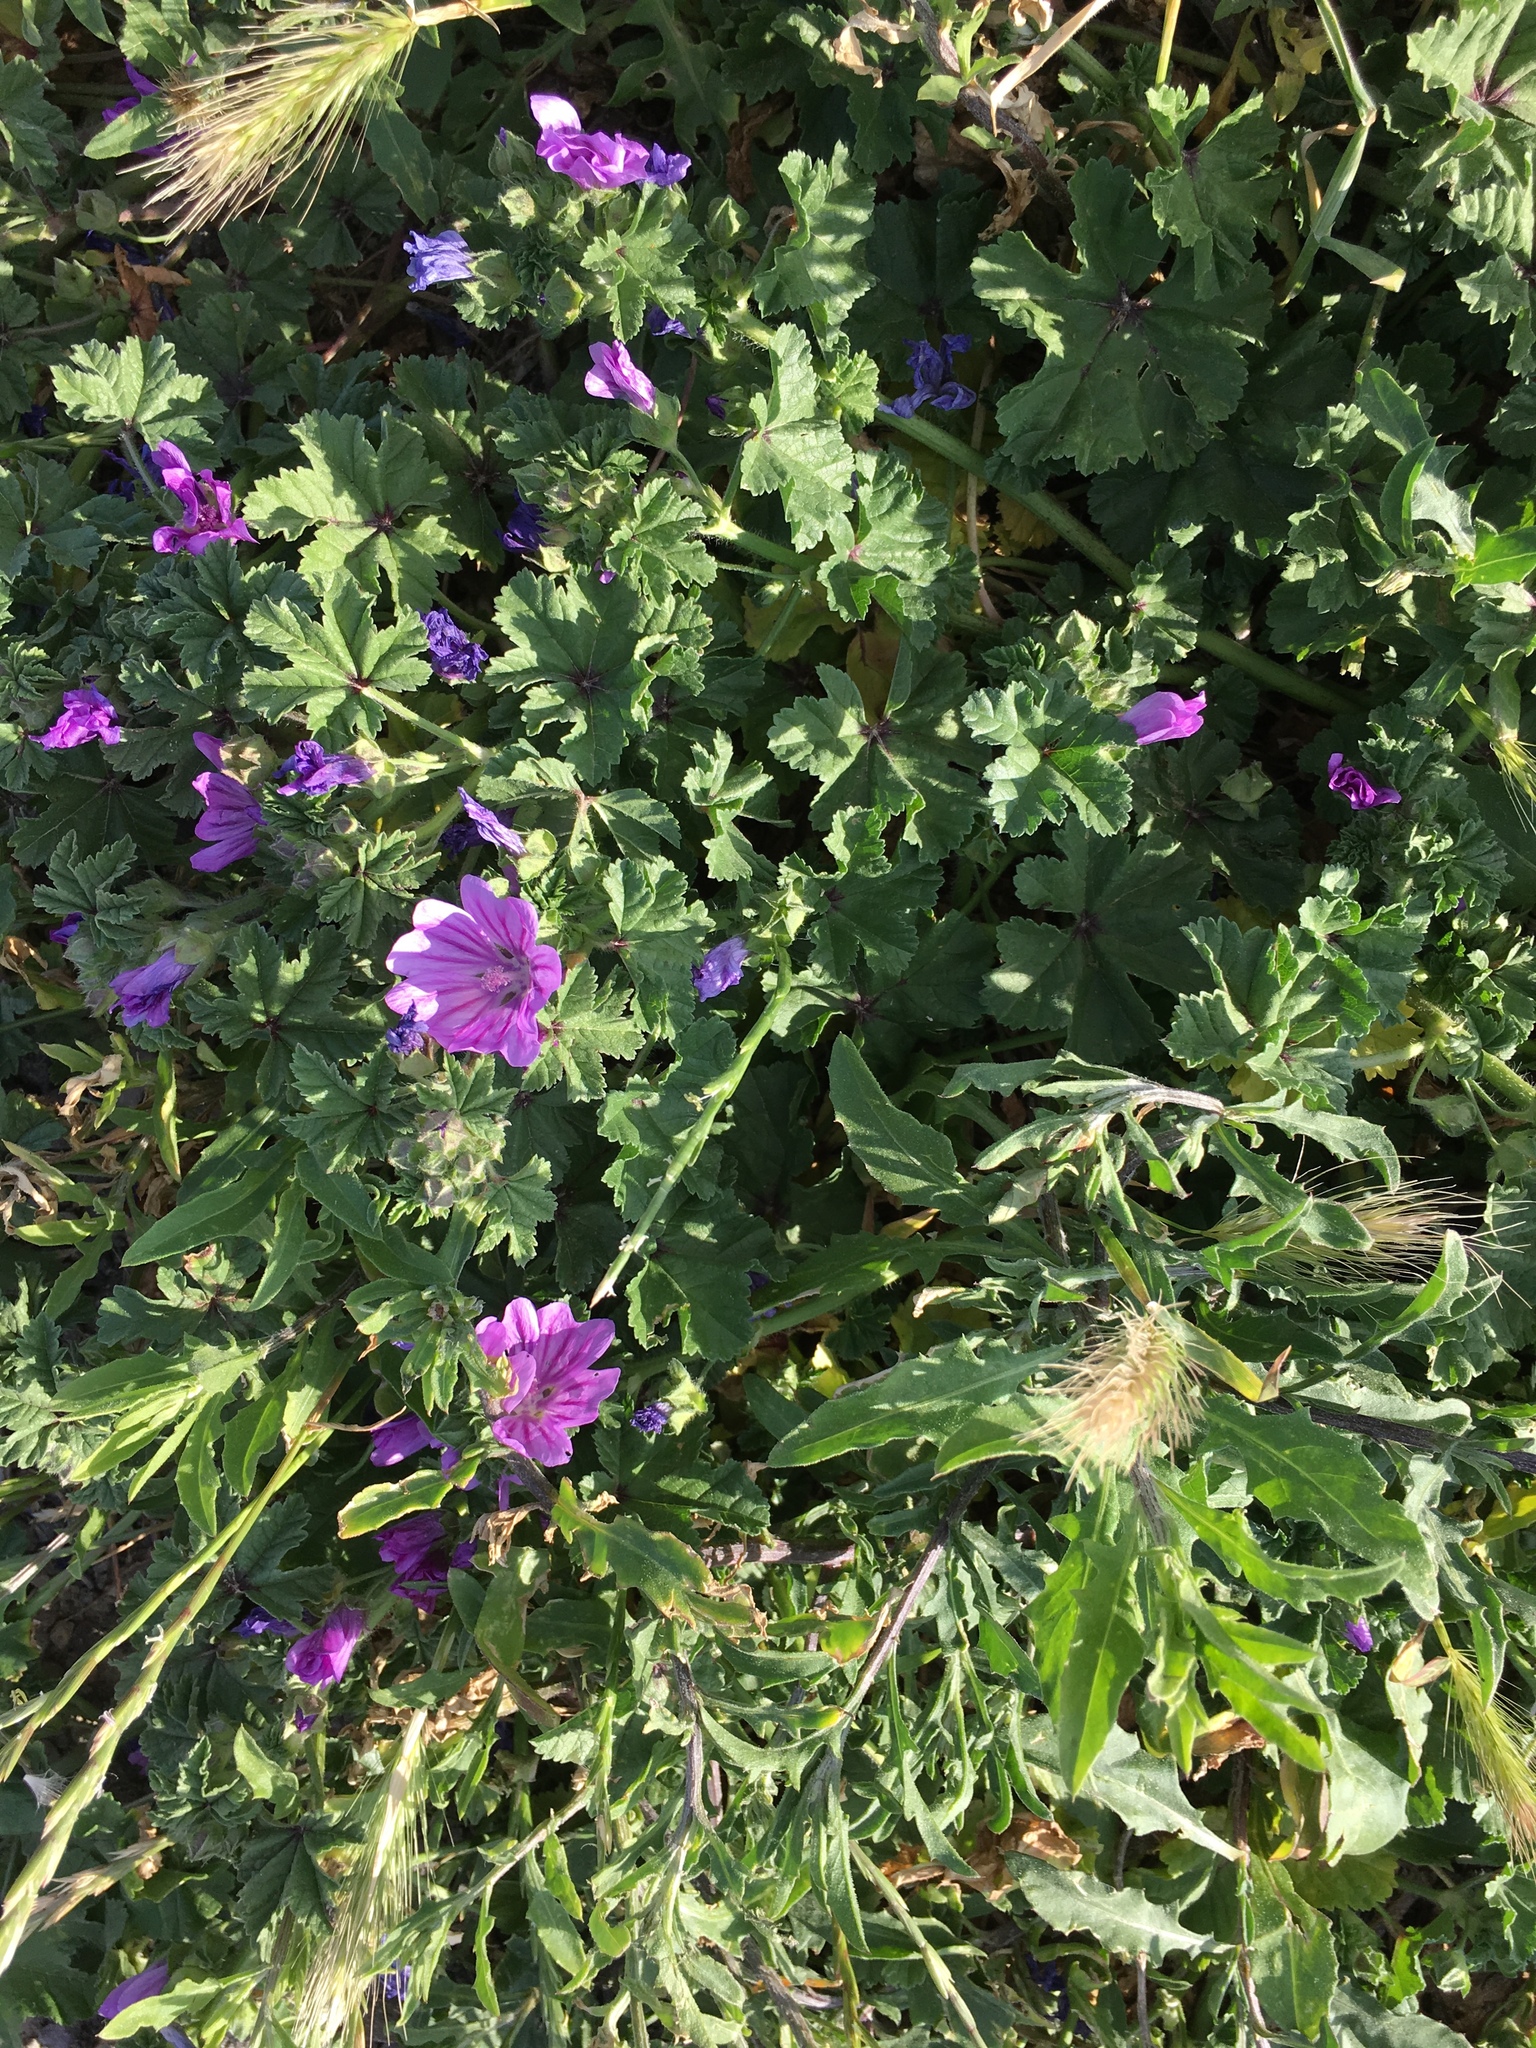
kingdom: Plantae
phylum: Tracheophyta
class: Magnoliopsida
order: Malvales
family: Malvaceae
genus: Malva
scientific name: Malva sylvestris
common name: Common mallow
